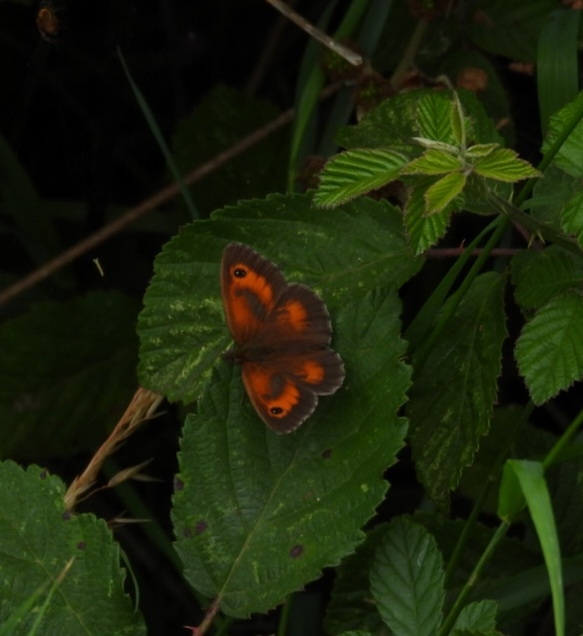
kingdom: Animalia
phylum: Arthropoda
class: Insecta
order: Lepidoptera
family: Nymphalidae
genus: Pyronia
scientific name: Pyronia tithonus
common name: Gatekeeper
